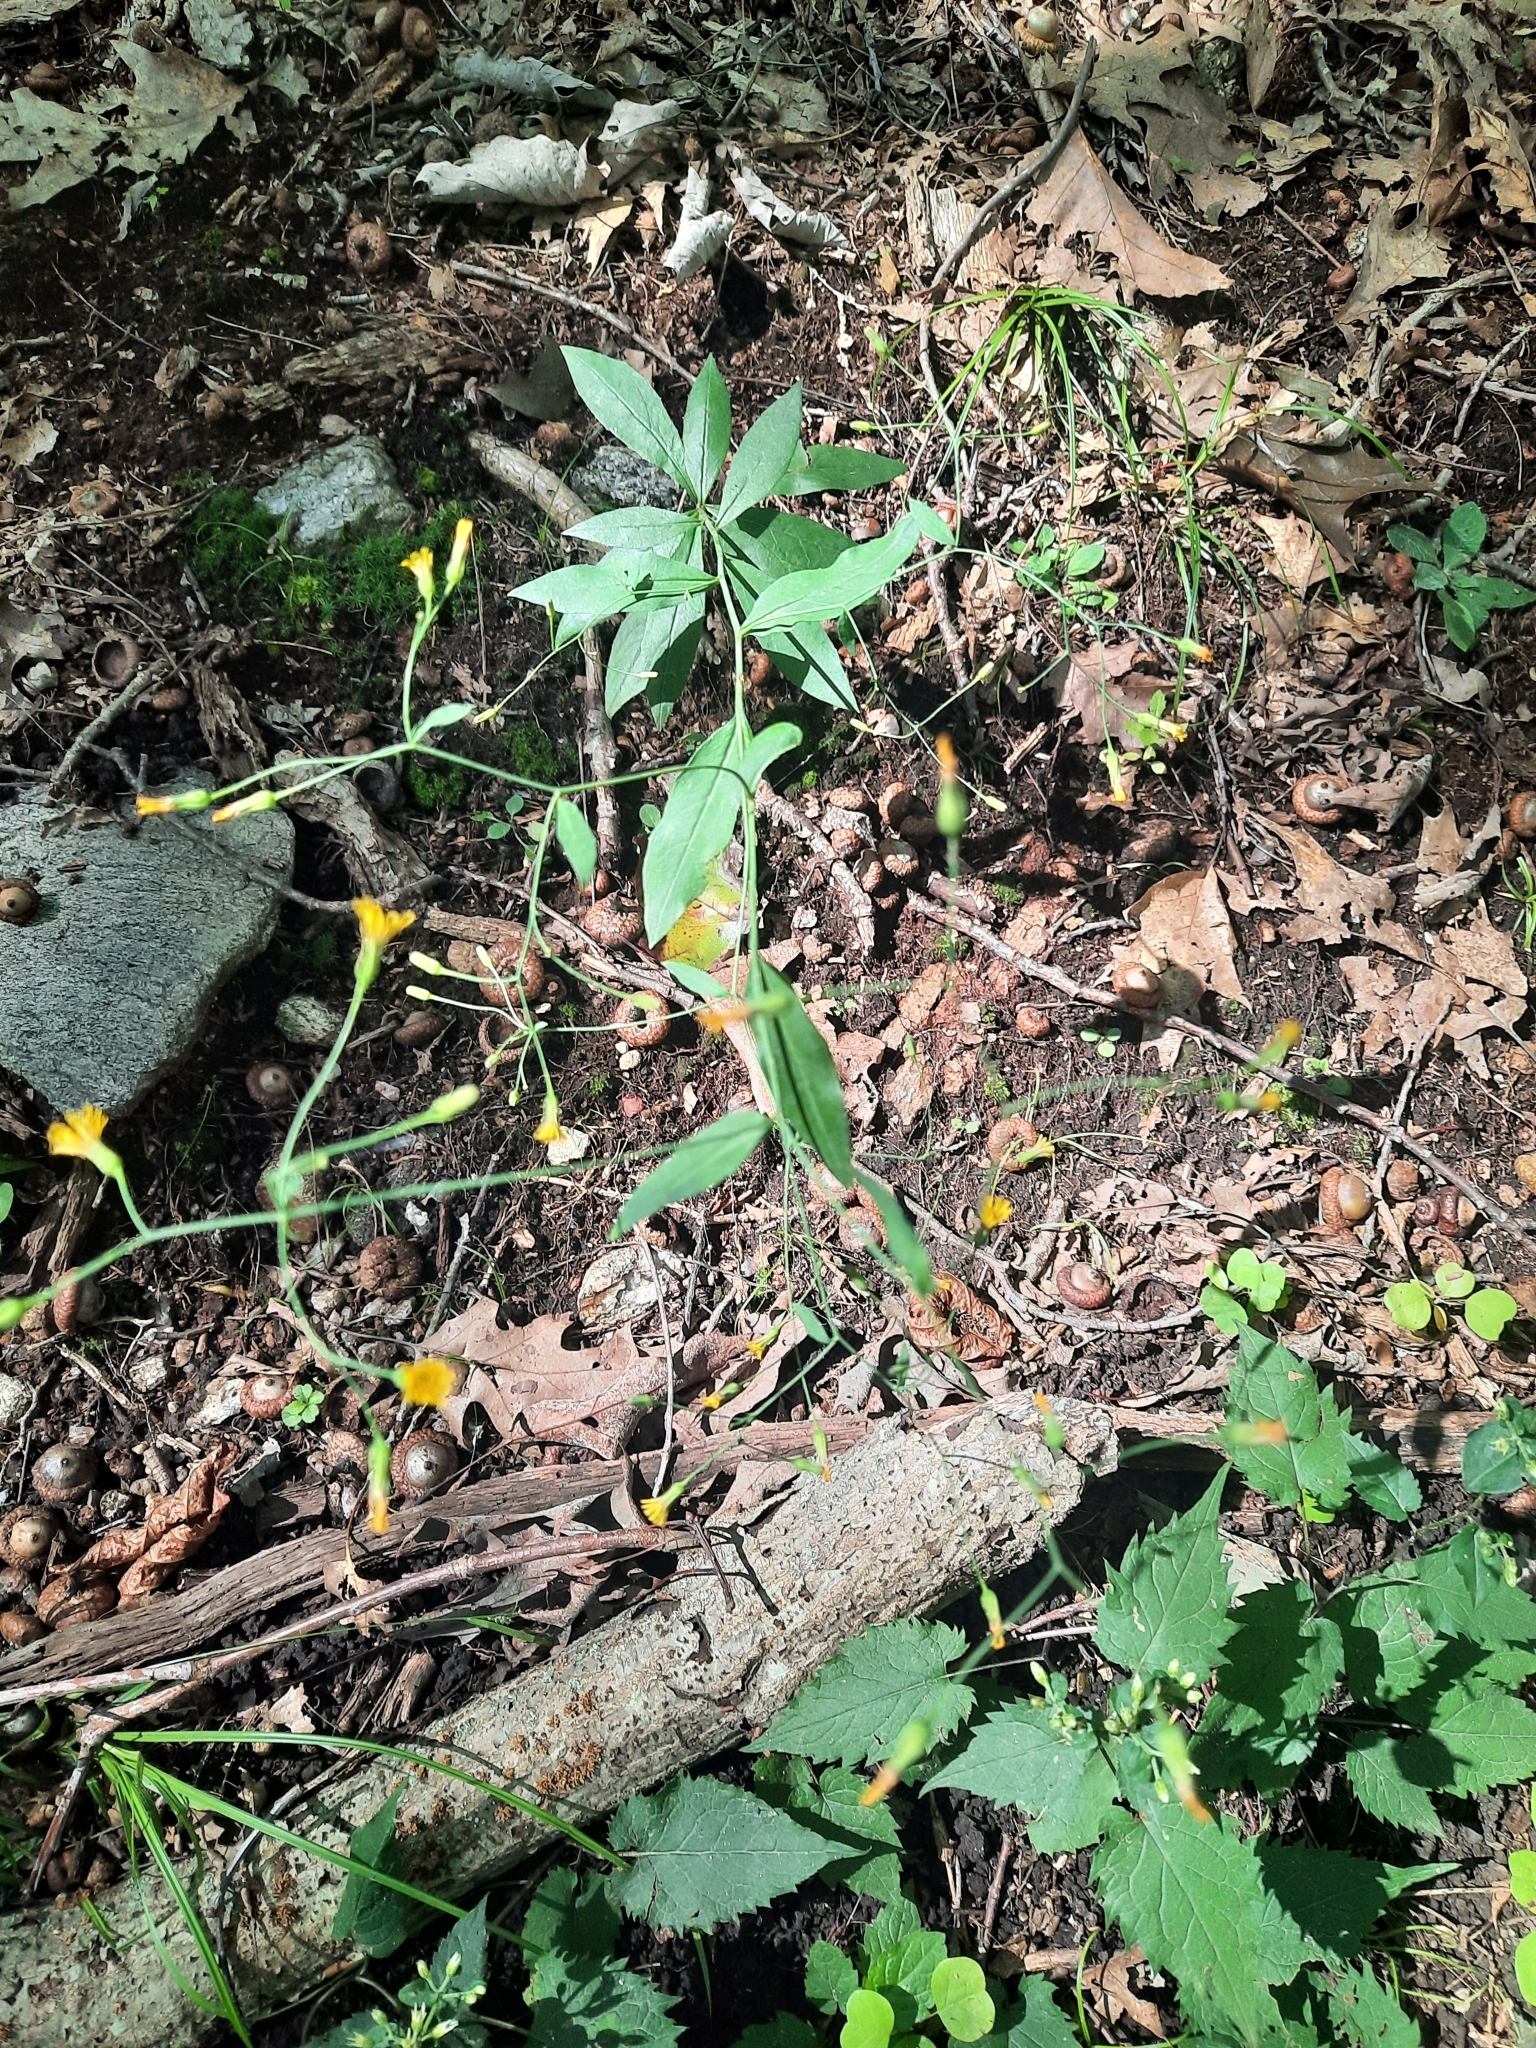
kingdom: Plantae
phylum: Tracheophyta
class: Magnoliopsida
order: Asterales
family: Asteraceae
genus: Hieracium
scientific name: Hieracium paniculatum
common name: Allegheny hawkweed
